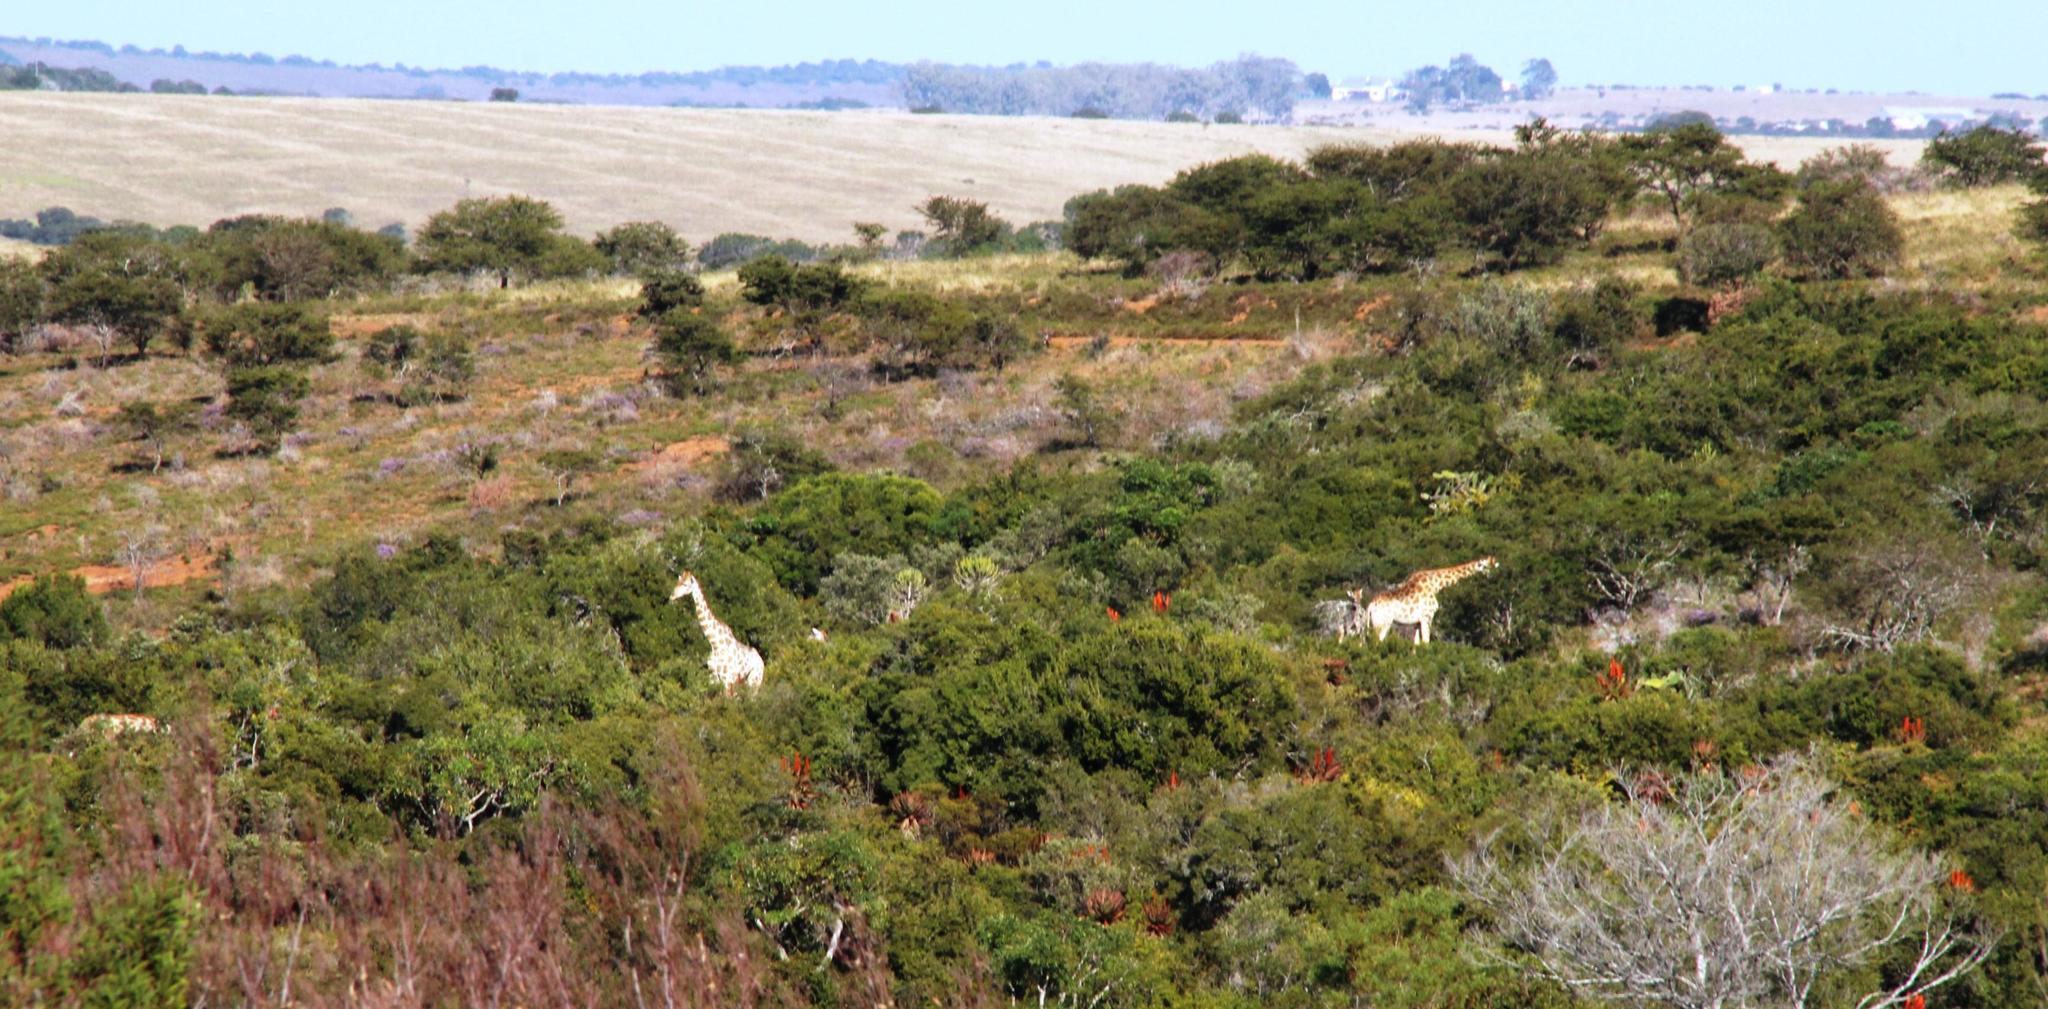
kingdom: Animalia
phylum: Chordata
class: Mammalia
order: Artiodactyla
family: Giraffidae
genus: Giraffa
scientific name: Giraffa giraffa
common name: Southern giraffe
